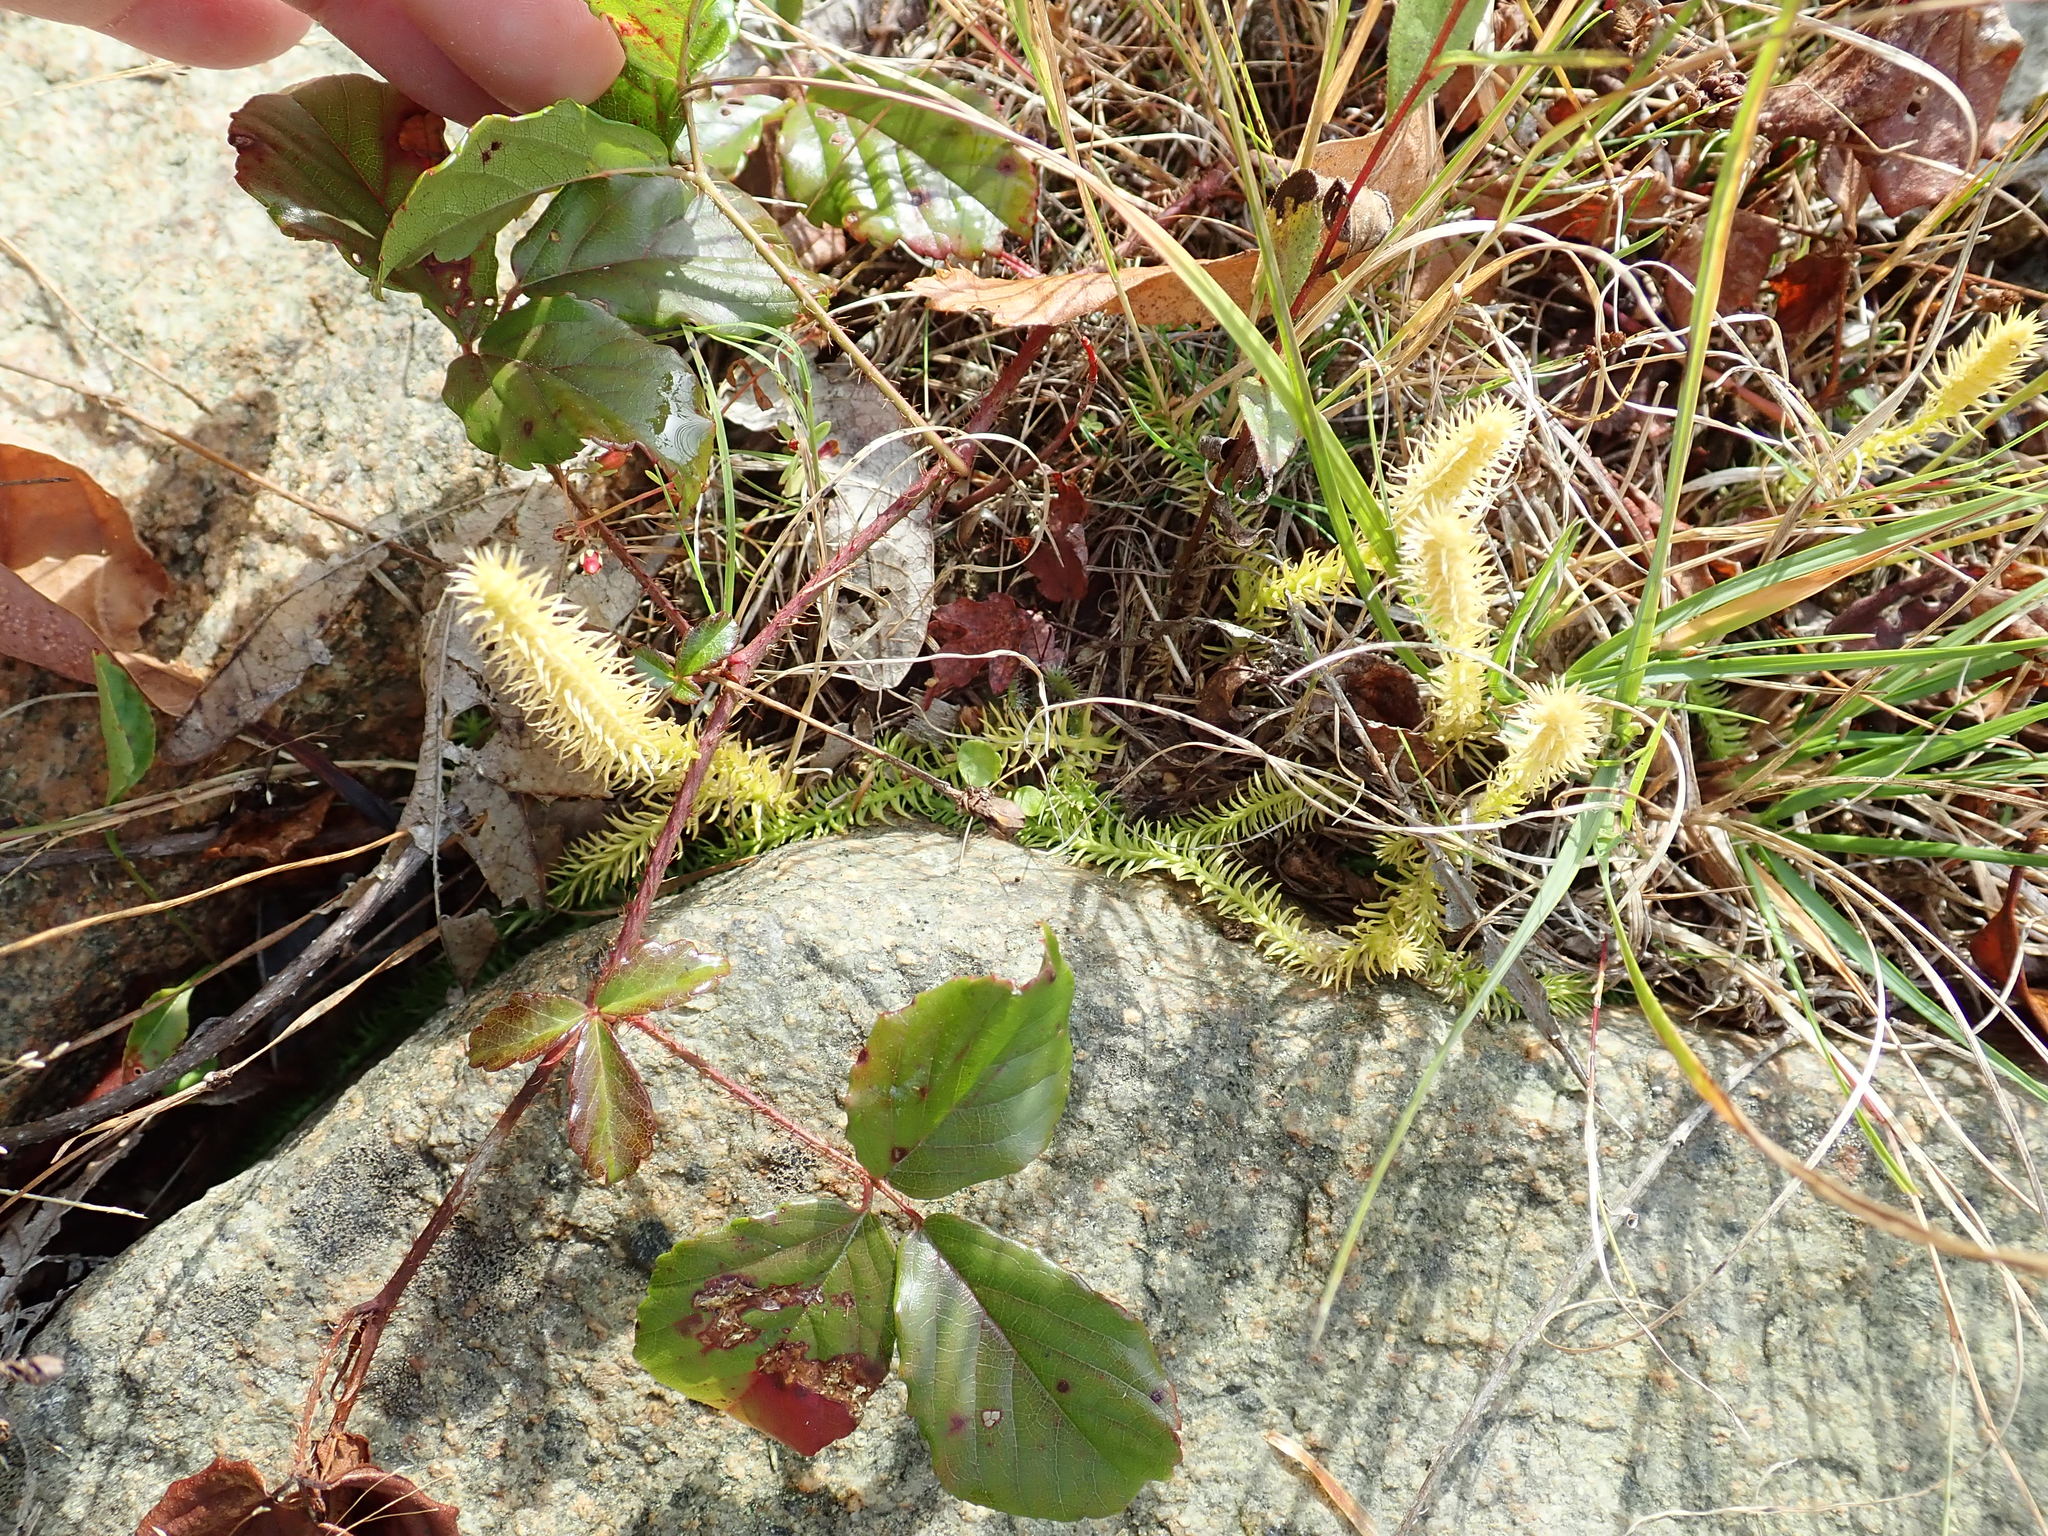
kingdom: Plantae
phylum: Tracheophyta
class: Lycopodiopsida
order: Lycopodiales
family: Lycopodiaceae
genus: Lycopodiella
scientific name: Lycopodiella inundata
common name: Marsh clubmoss
